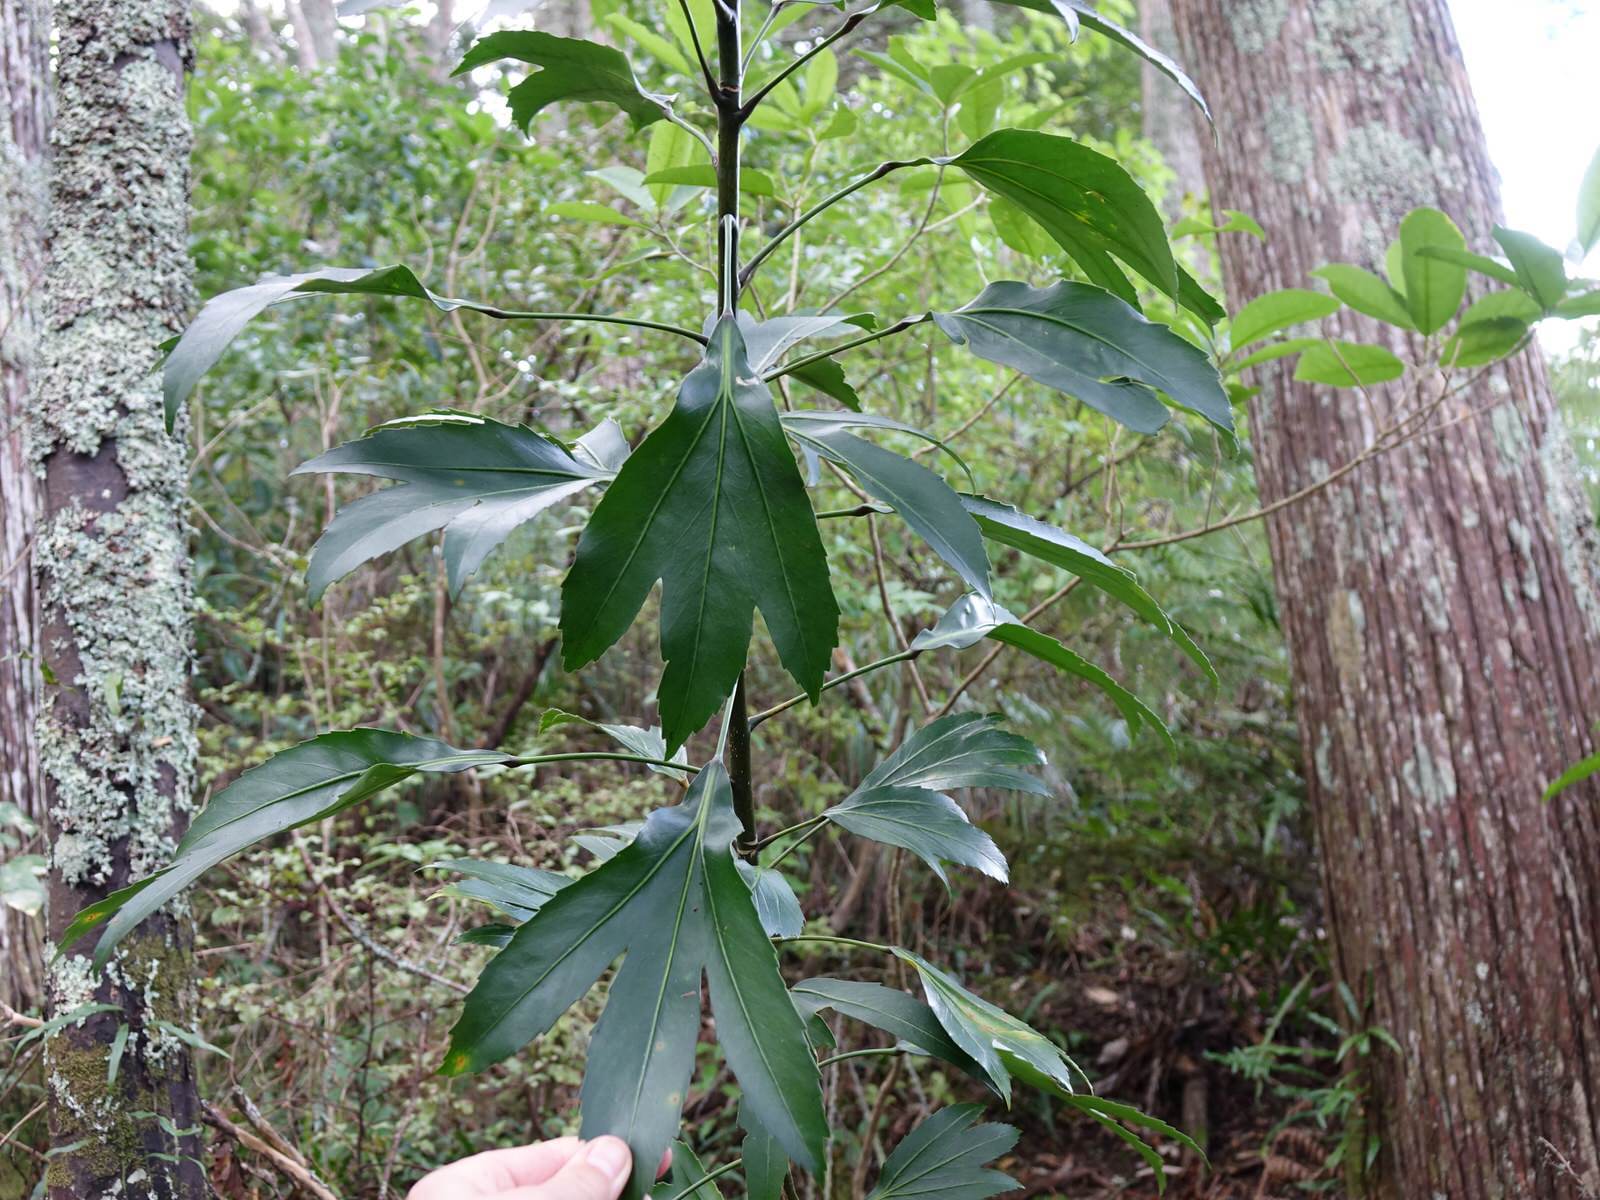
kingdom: Plantae
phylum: Tracheophyta
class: Magnoliopsida
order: Apiales
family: Araliaceae
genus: Pseudopanax
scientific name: Pseudopanax
